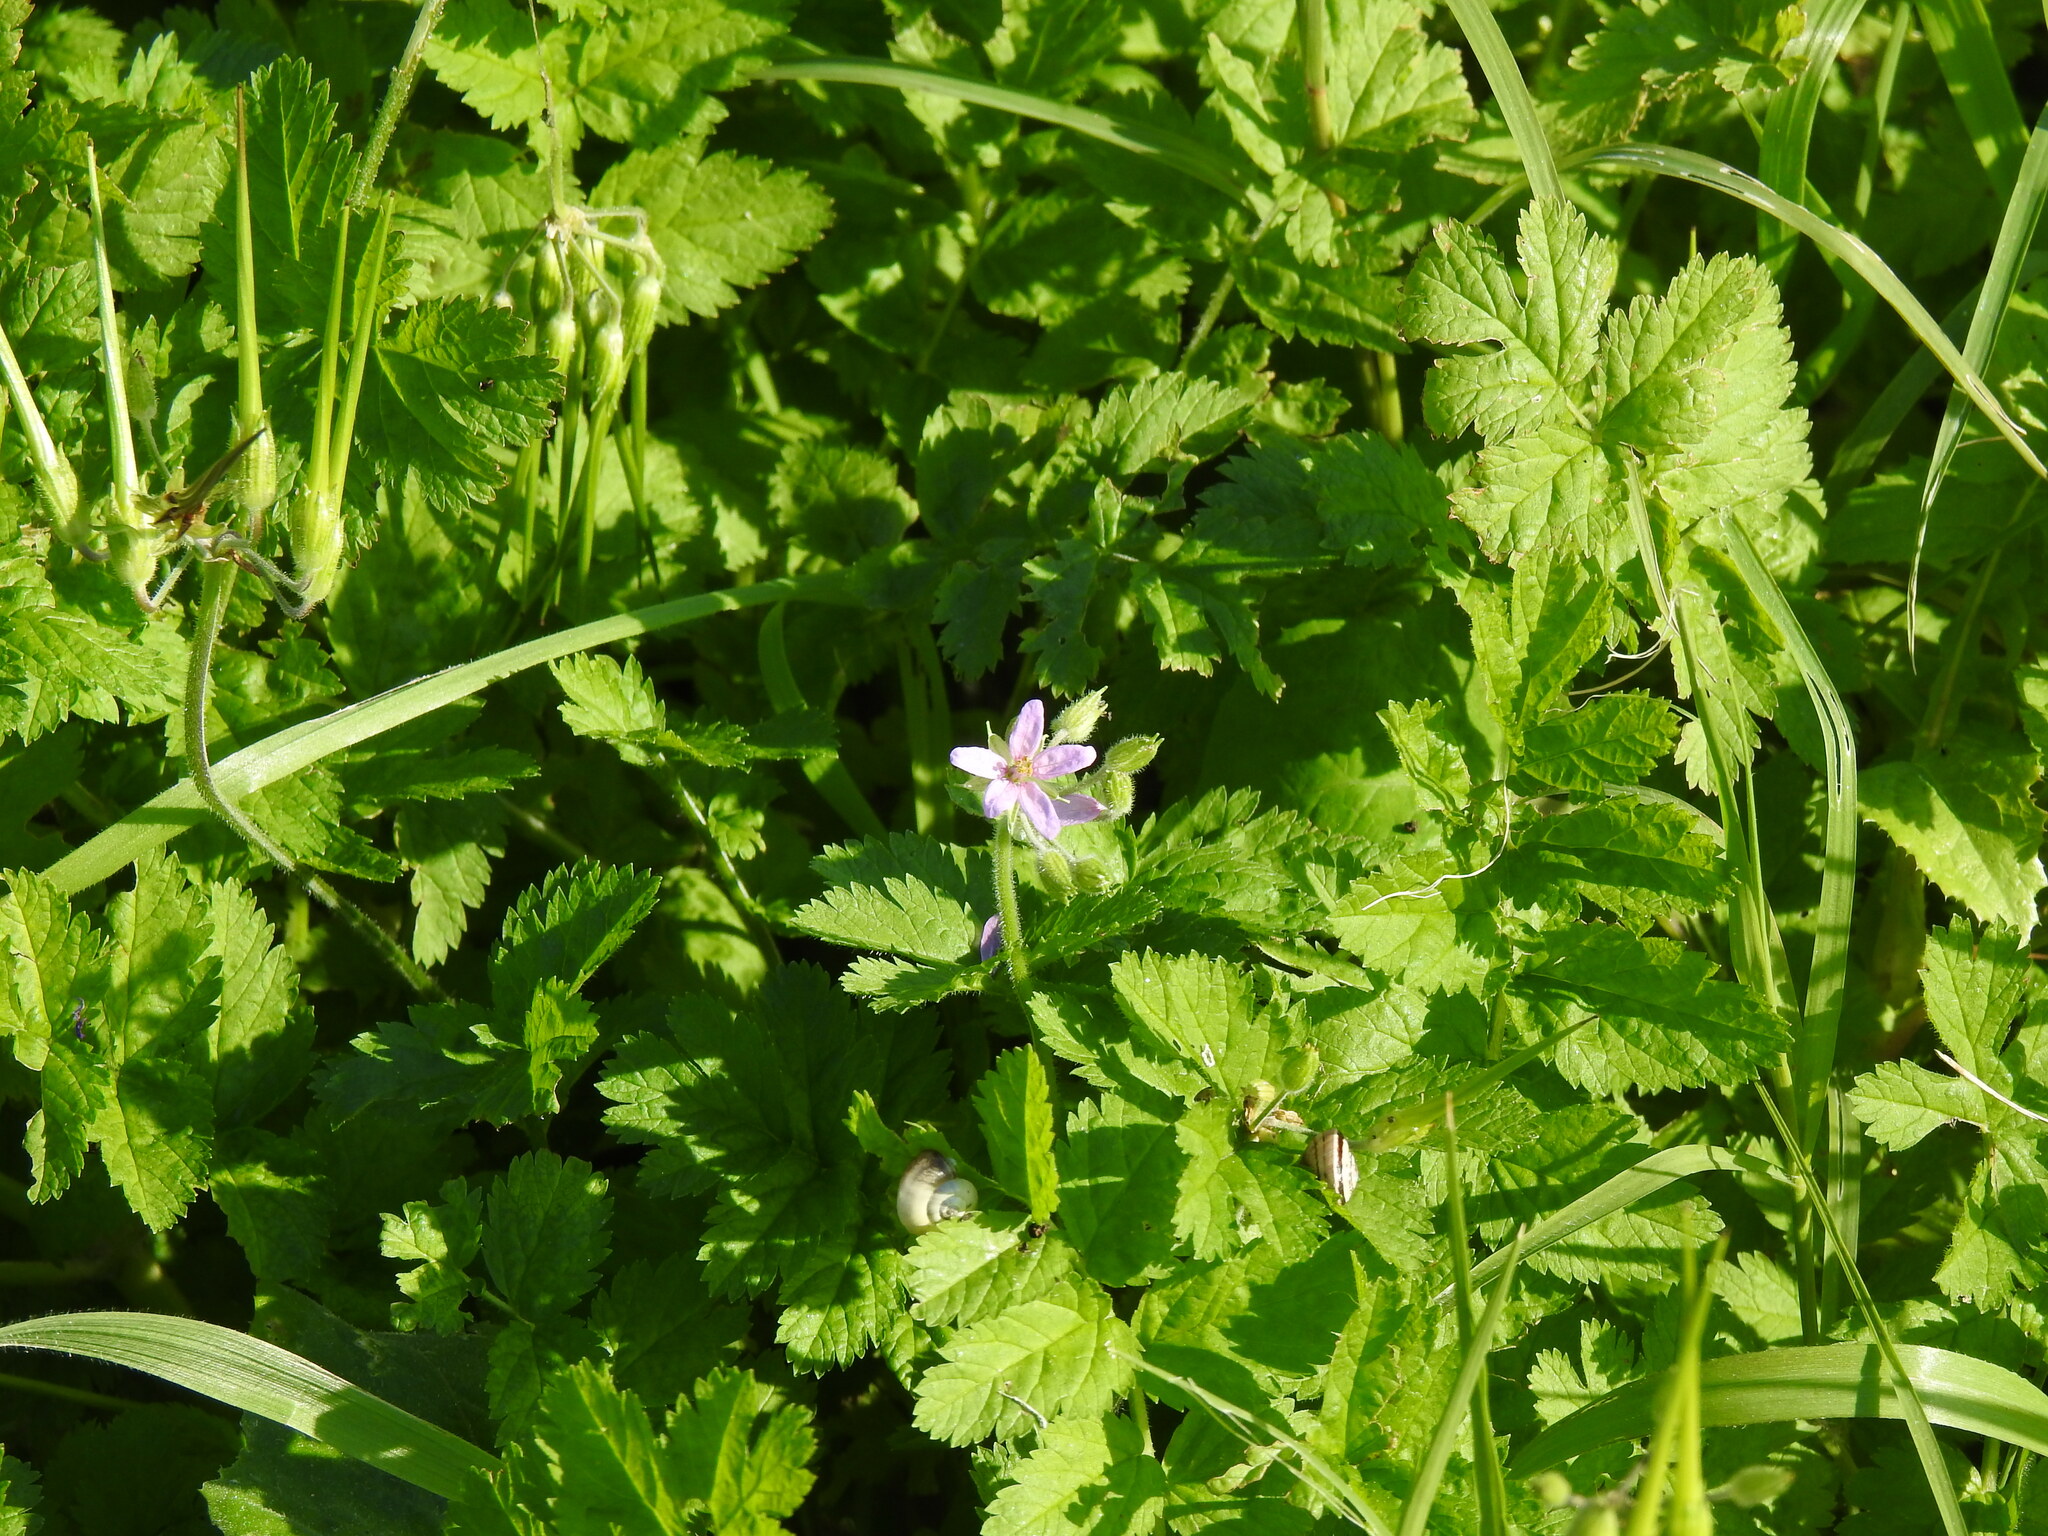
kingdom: Plantae
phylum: Tracheophyta
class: Magnoliopsida
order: Geraniales
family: Geraniaceae
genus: Erodium
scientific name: Erodium moschatum
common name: Musk stork's-bill
